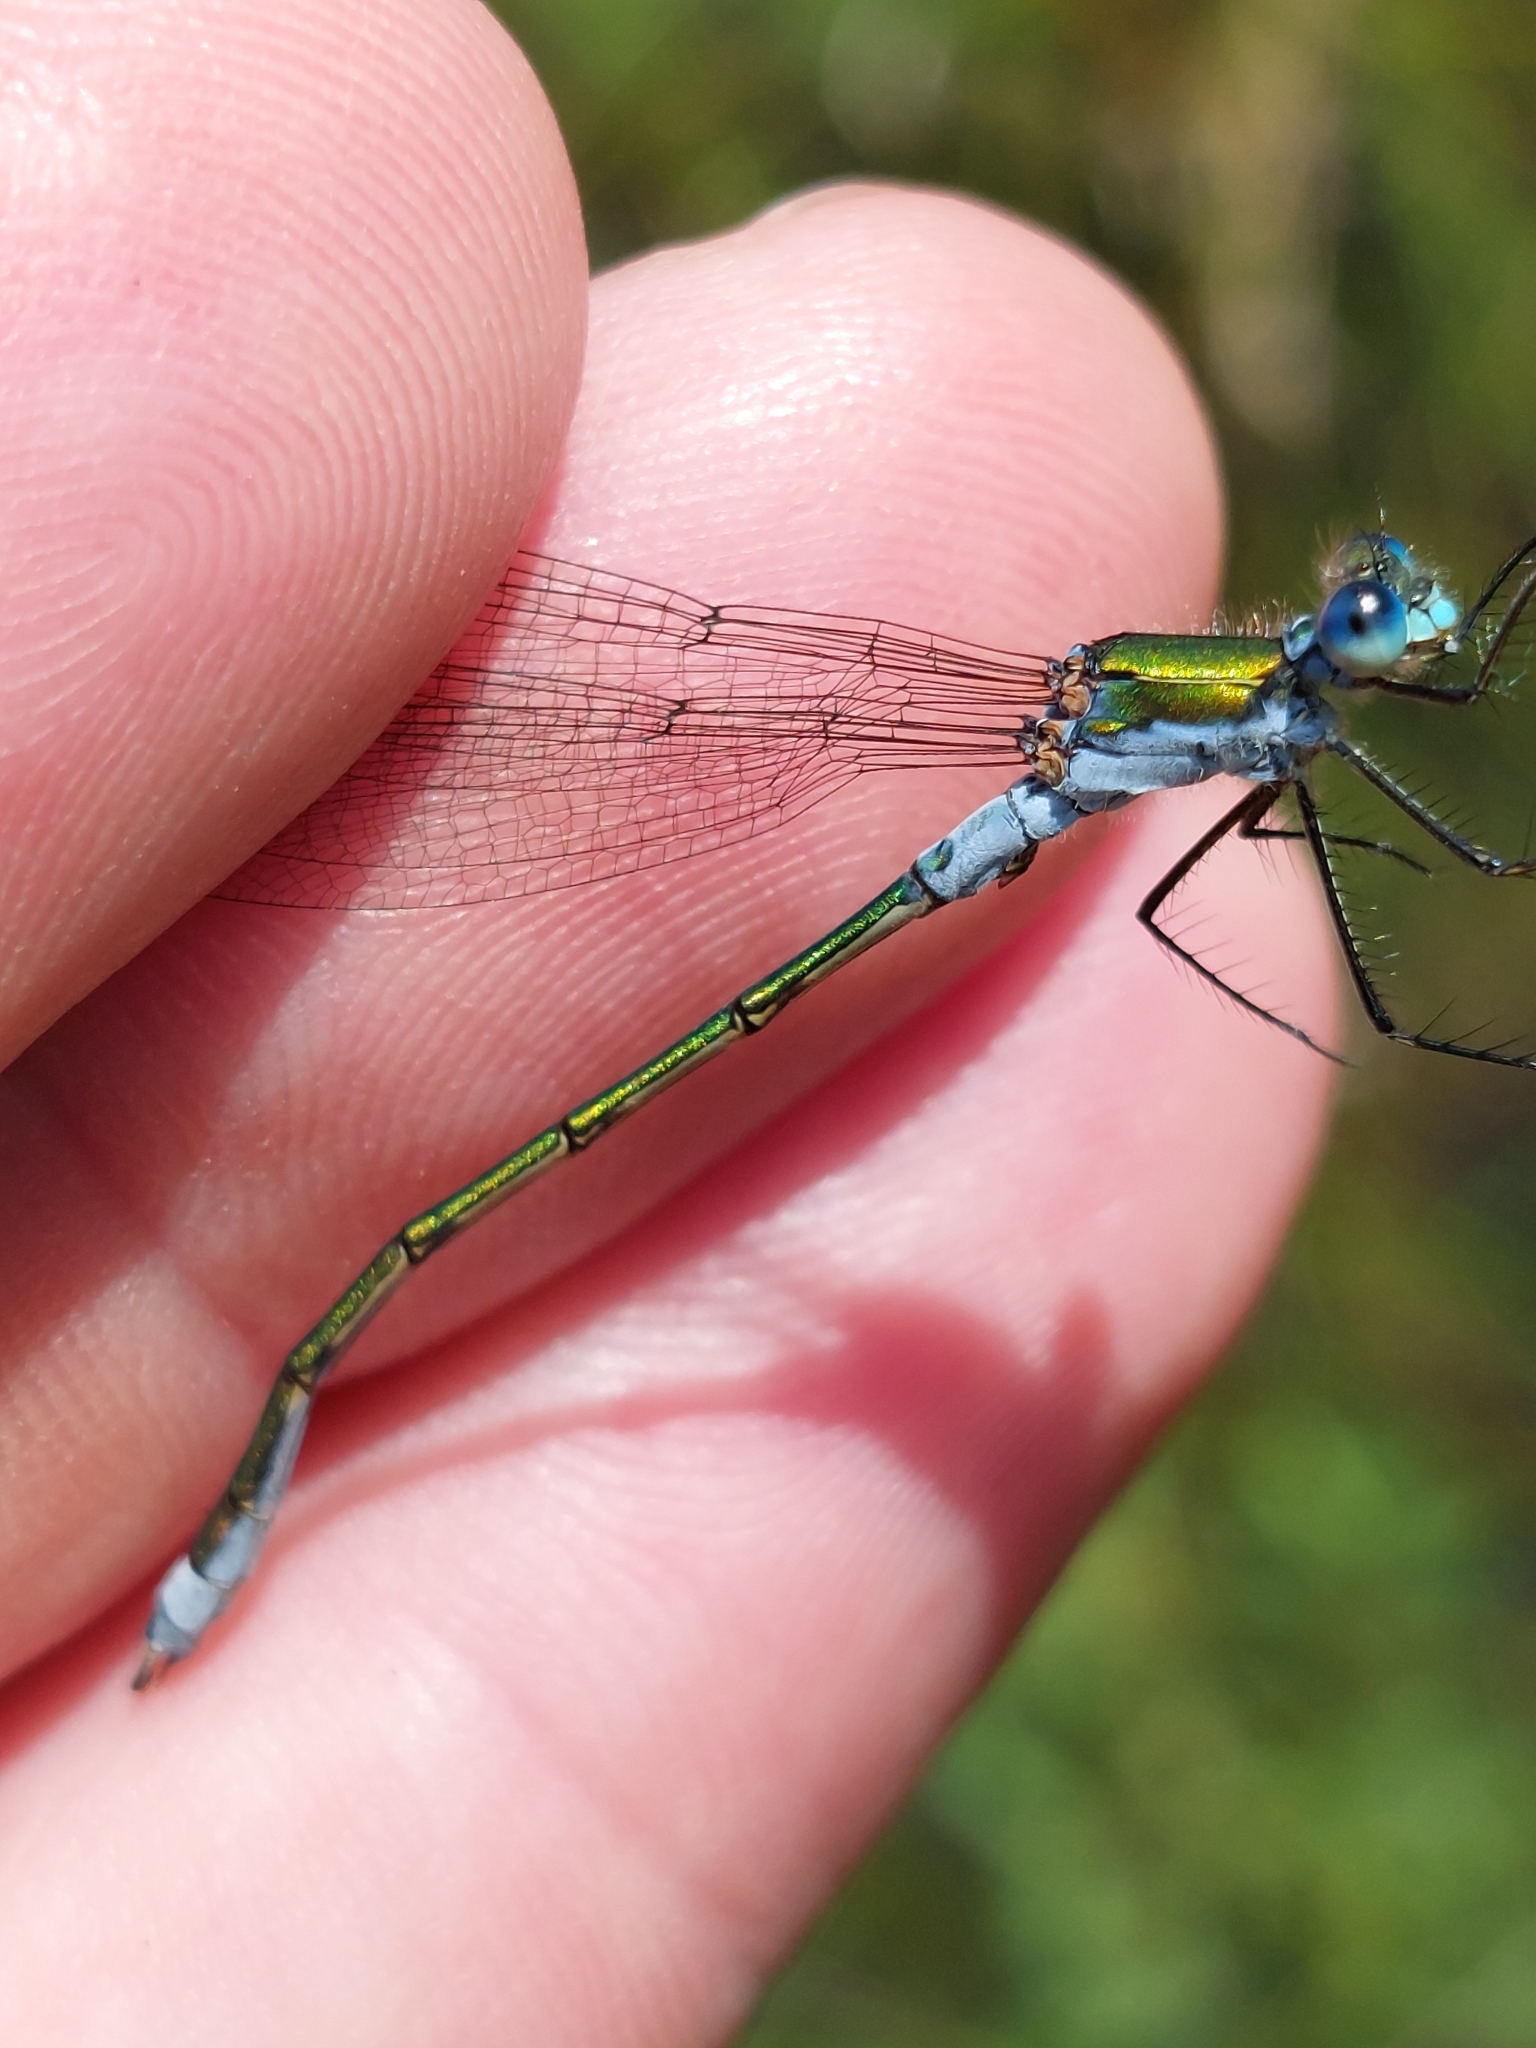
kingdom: Animalia
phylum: Arthropoda
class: Insecta
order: Odonata
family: Lestidae
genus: Lestes
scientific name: Lestes sponsa
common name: Common spreadwing
